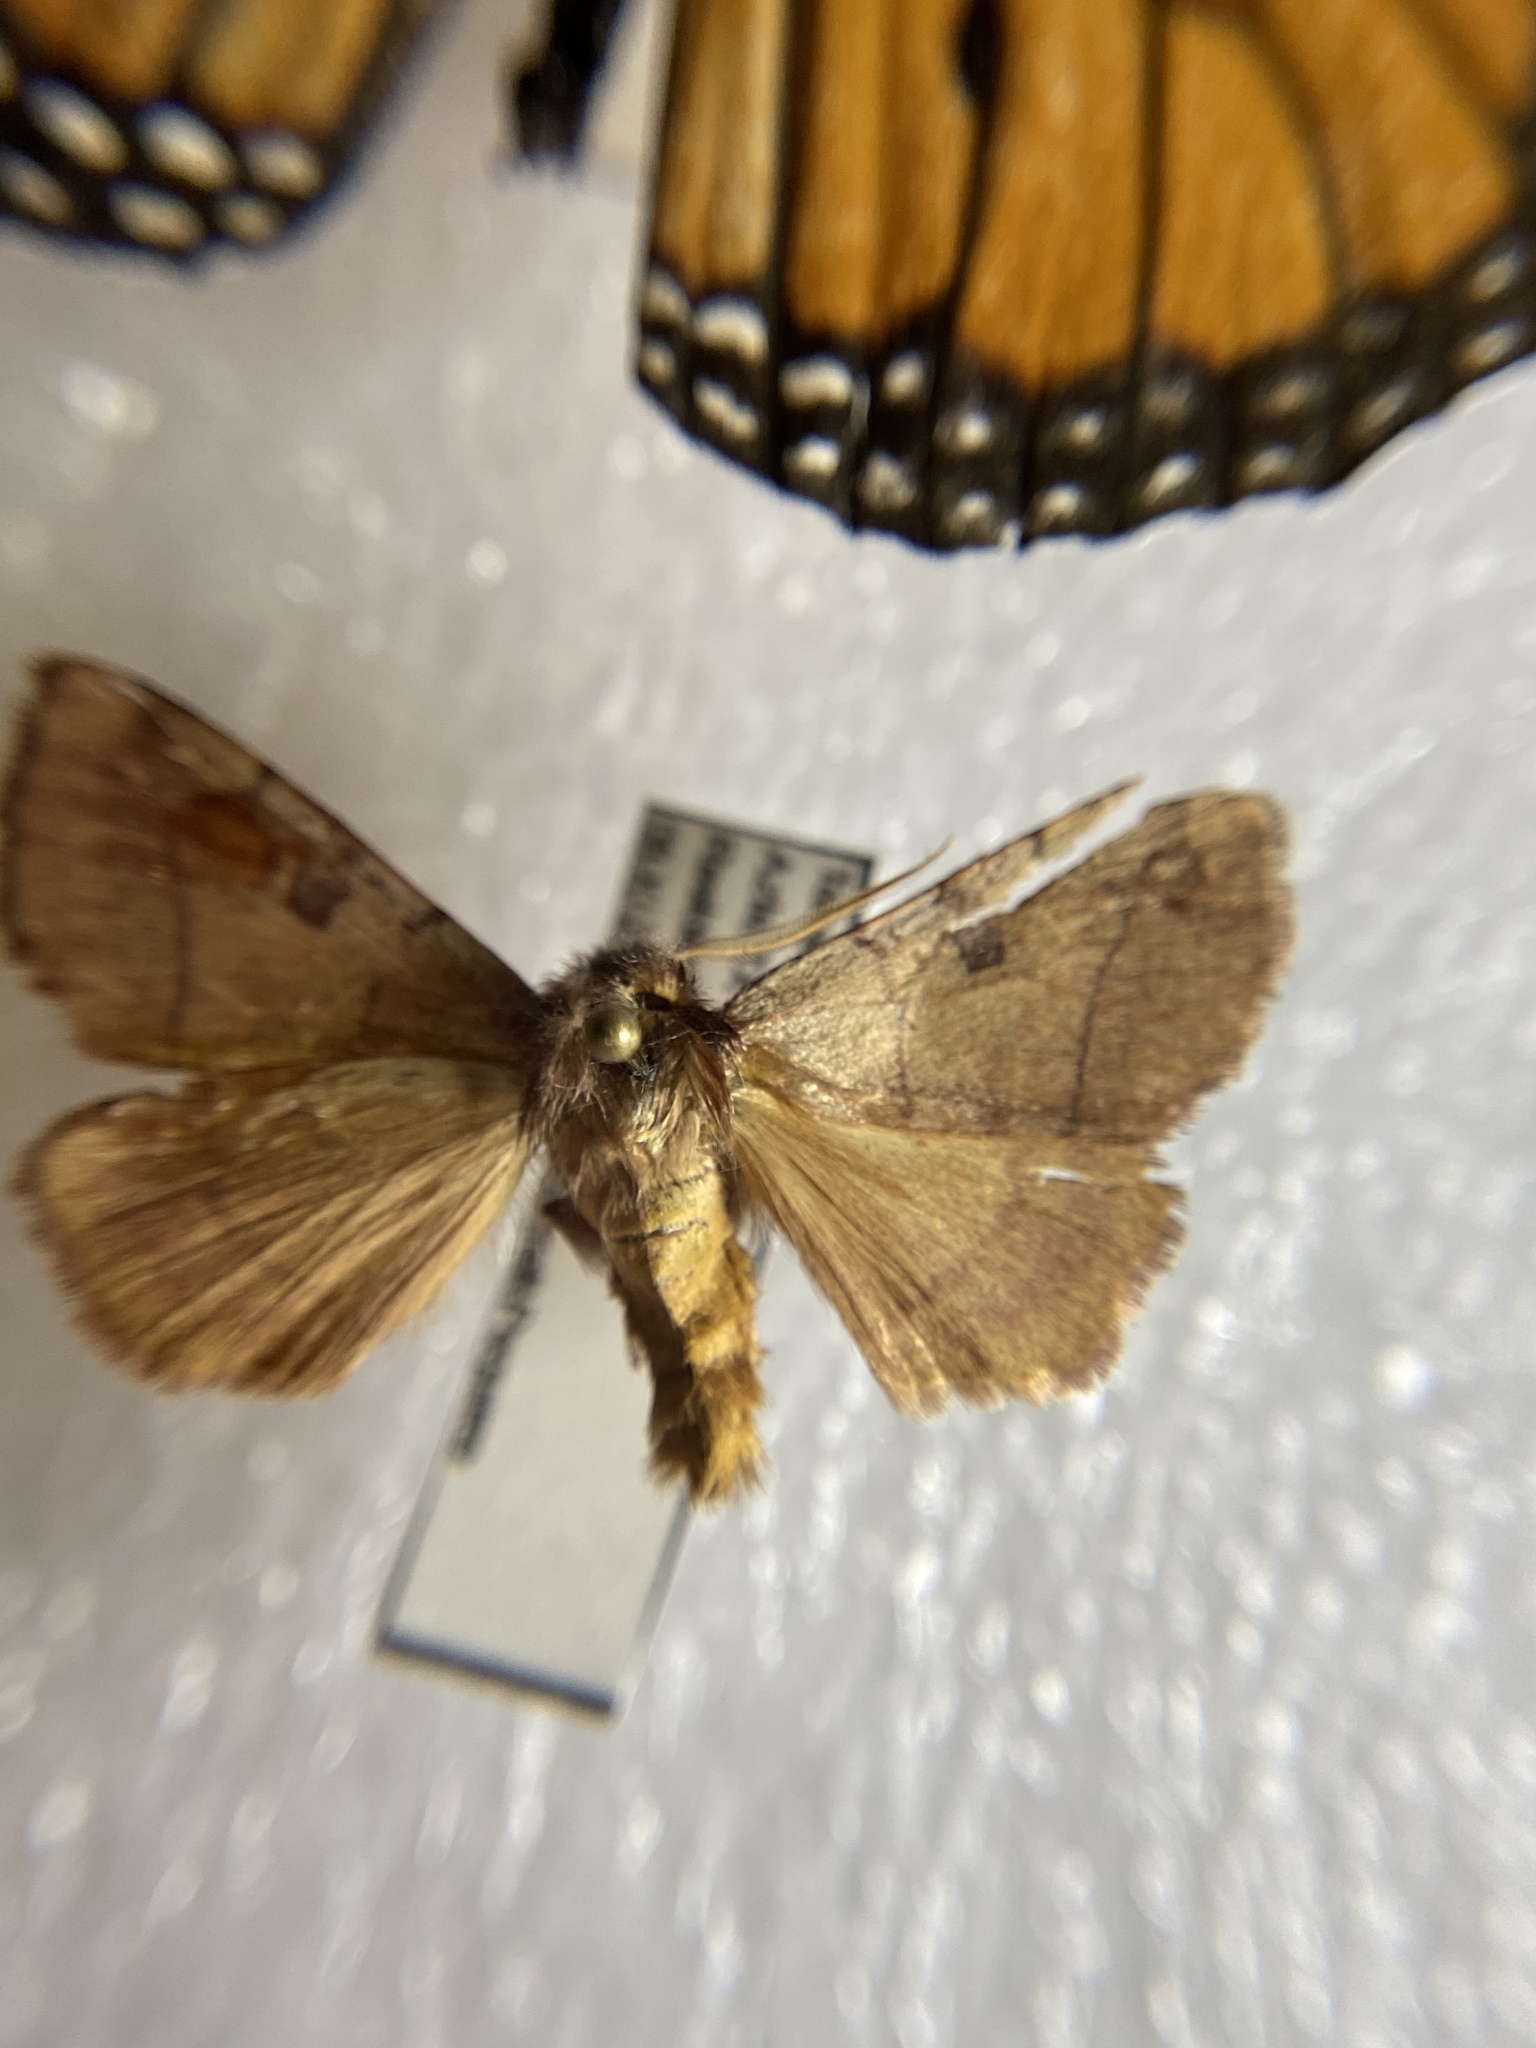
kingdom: Animalia
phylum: Arthropoda
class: Insecta
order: Lepidoptera
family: Noctuidae
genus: Choephora
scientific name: Choephora fungorum
